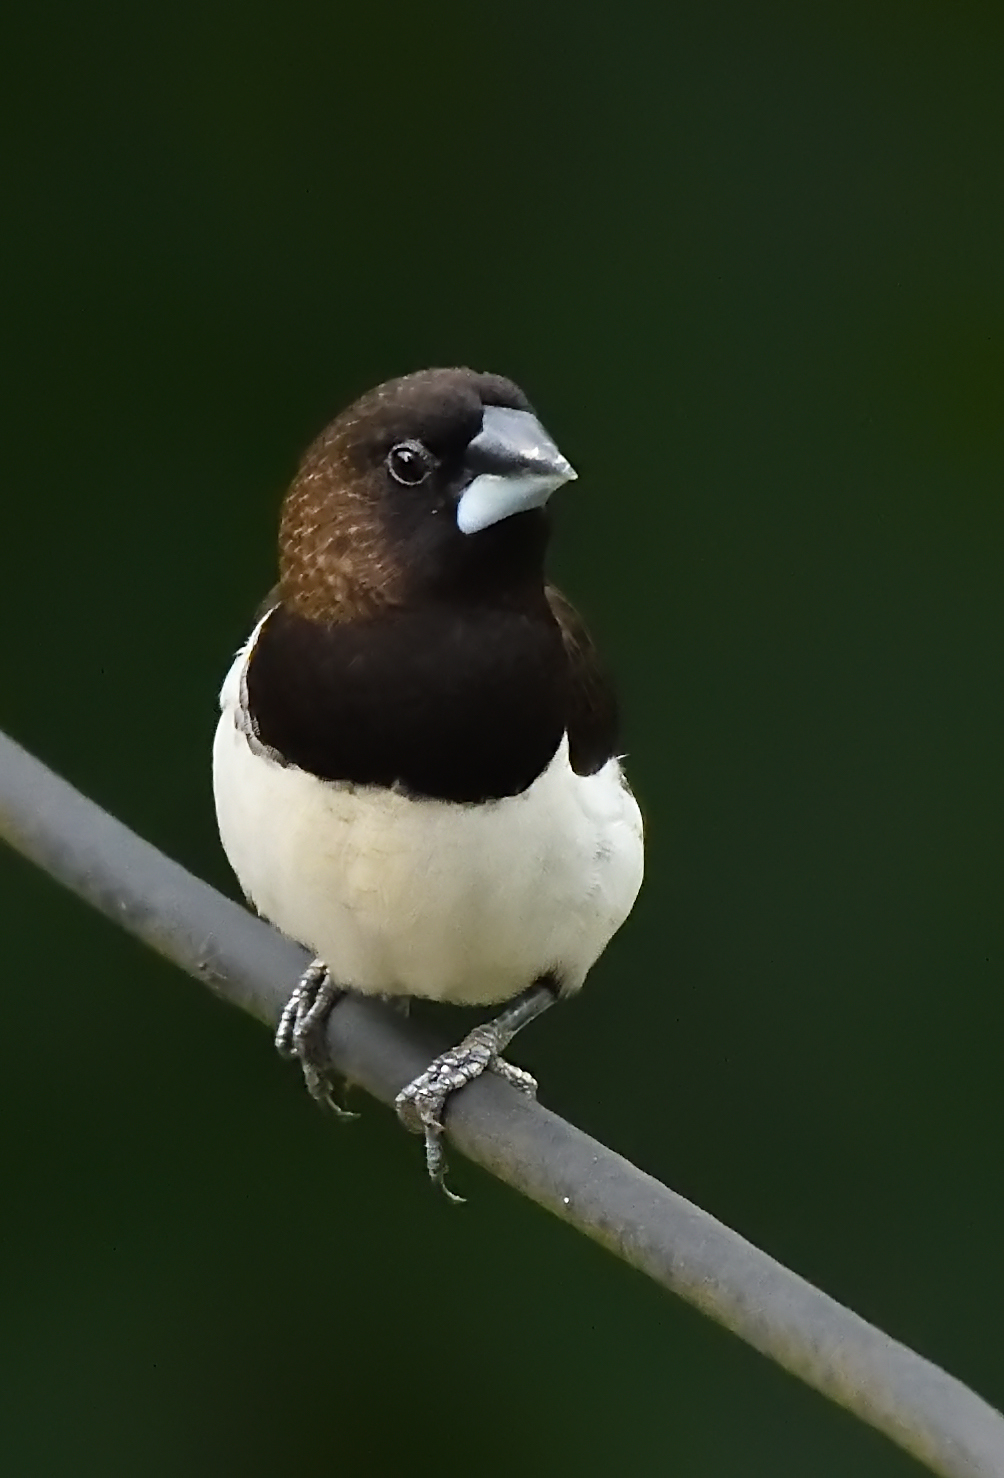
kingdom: Animalia
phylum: Chordata
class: Aves
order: Passeriformes
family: Estrildidae
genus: Lonchura
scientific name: Lonchura striata
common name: White-rumped munia
